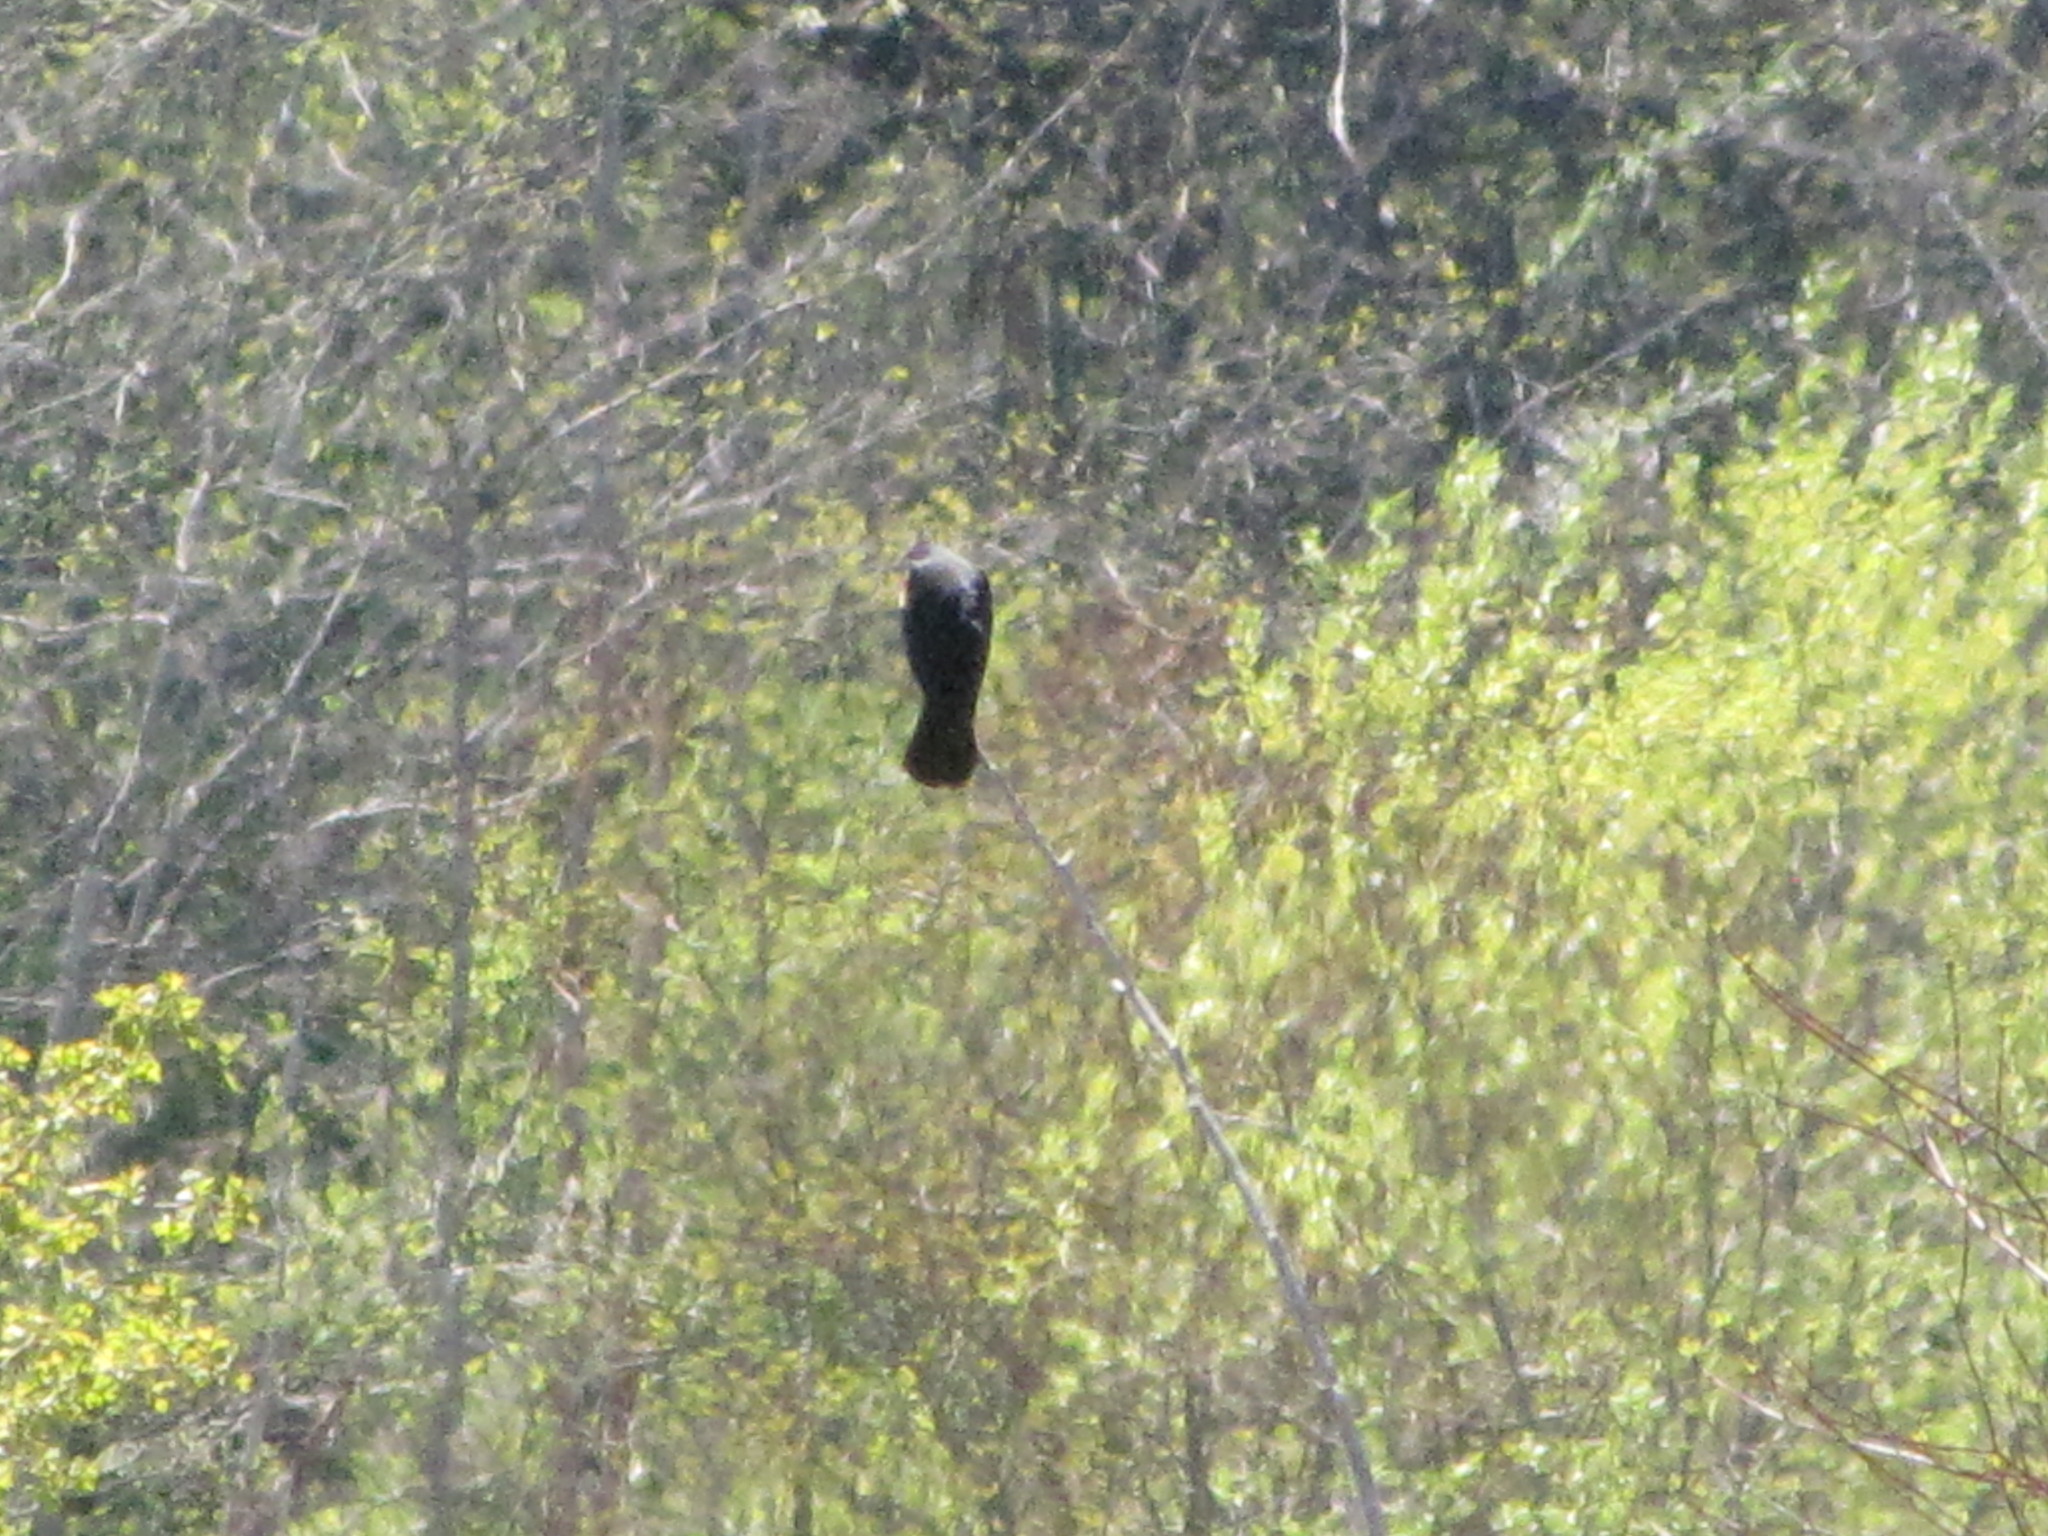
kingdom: Animalia
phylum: Chordata
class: Aves
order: Passeriformes
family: Icteridae
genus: Agelaius
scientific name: Agelaius phoeniceus
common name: Red-winged blackbird
